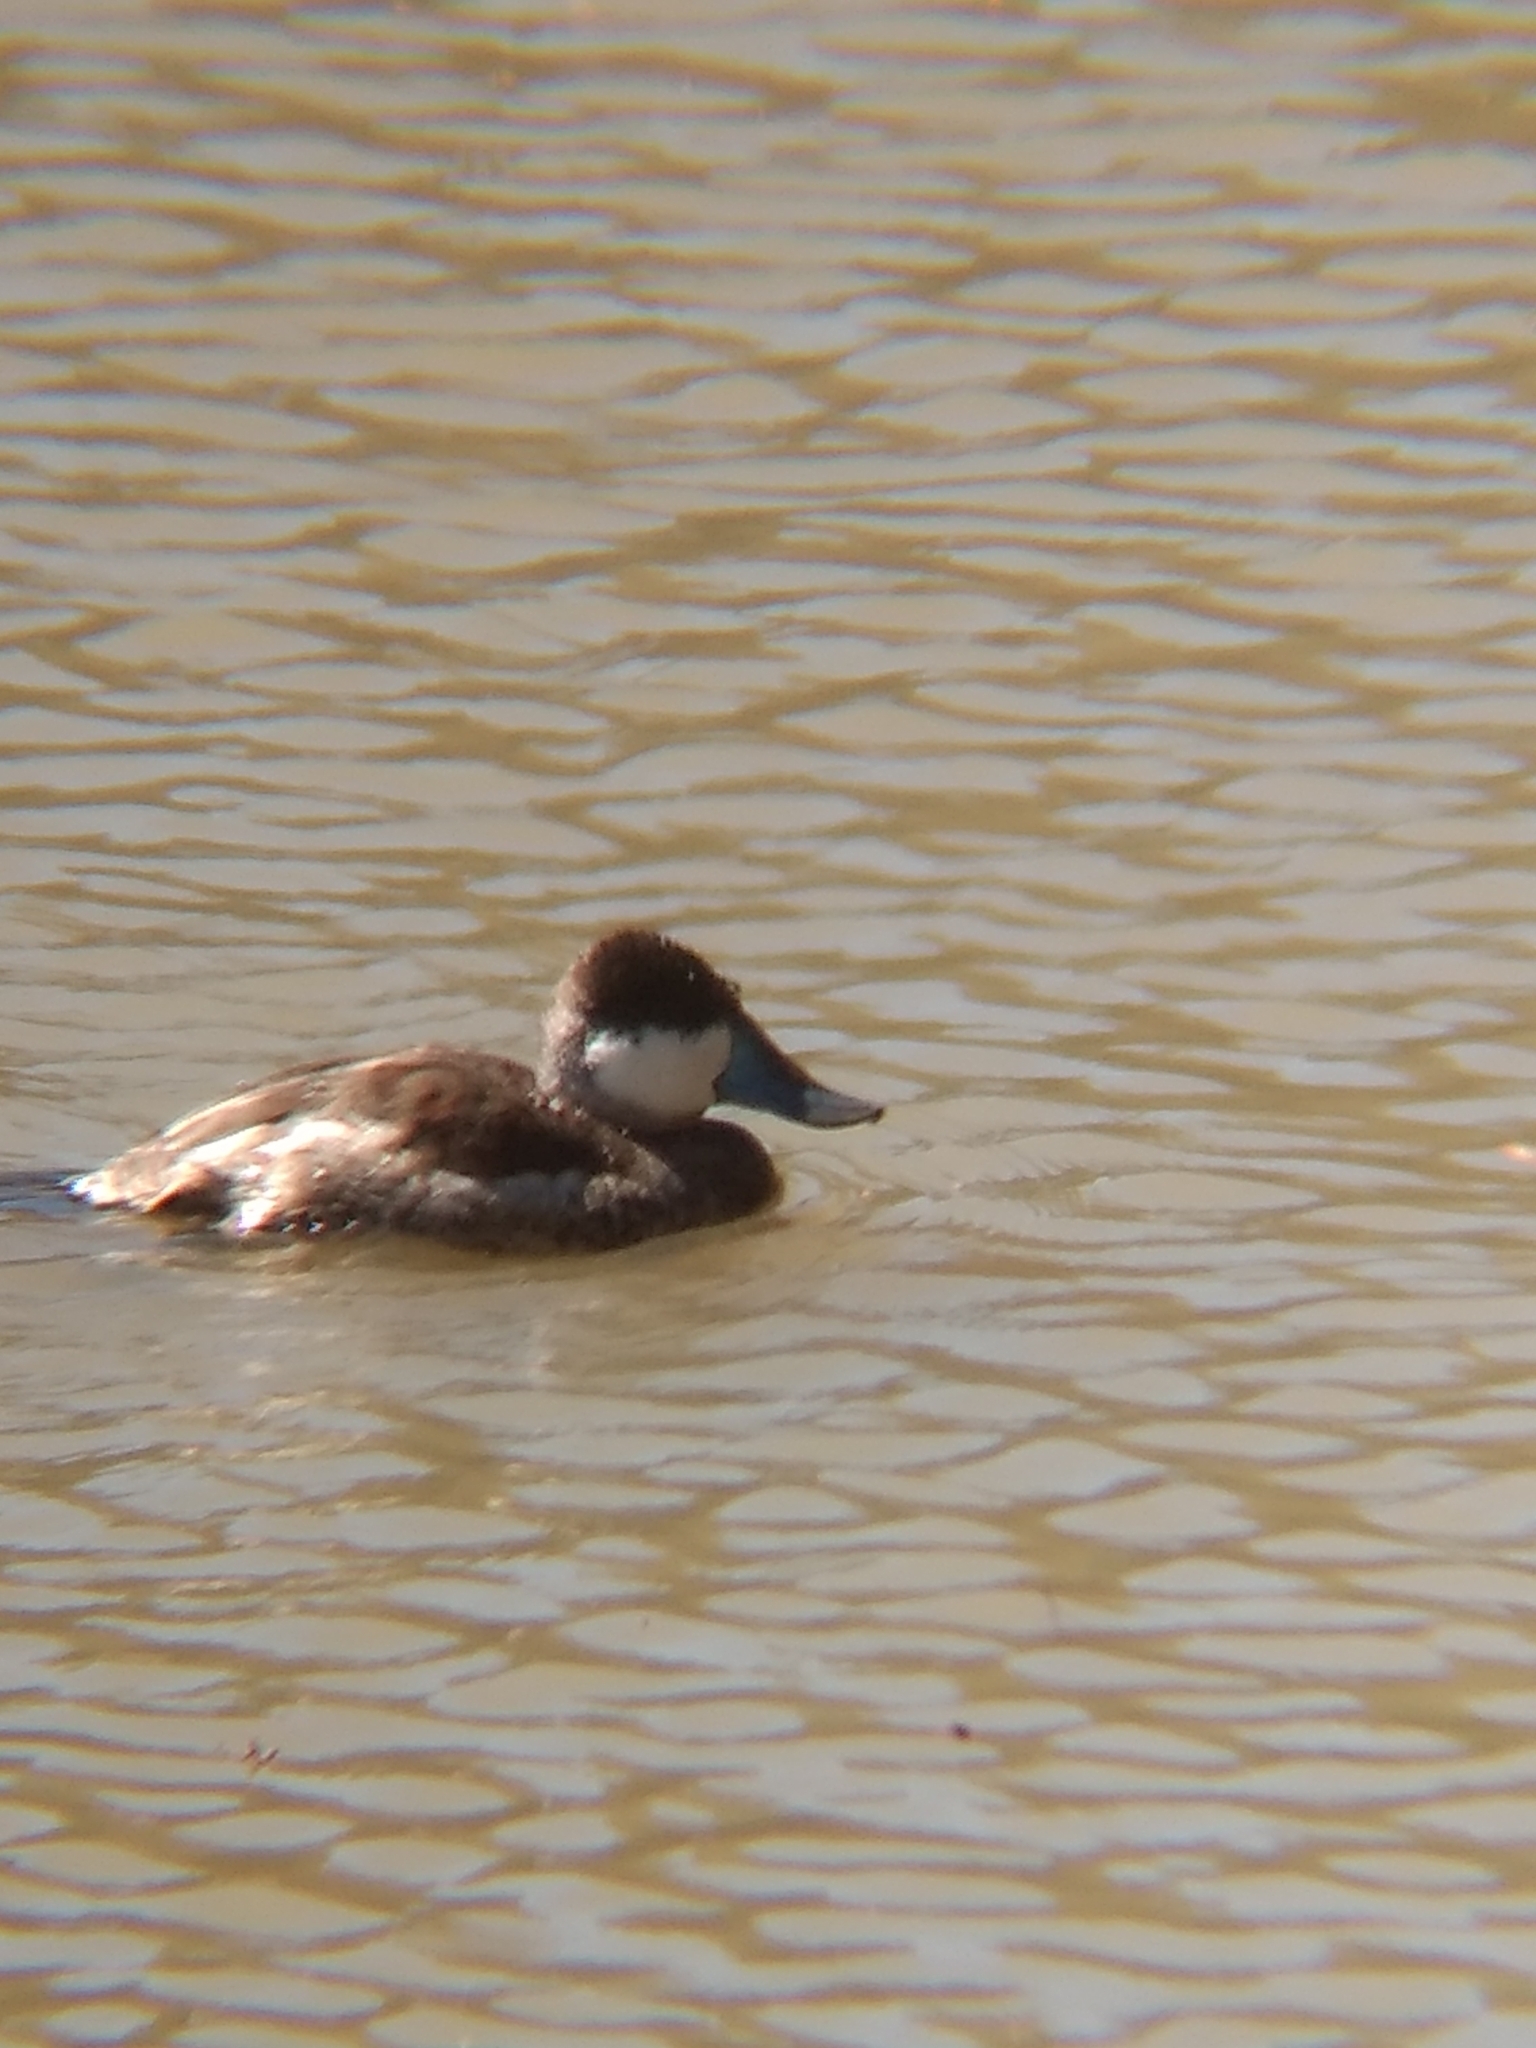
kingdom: Animalia
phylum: Chordata
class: Aves
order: Anseriformes
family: Anatidae
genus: Oxyura
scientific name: Oxyura jamaicensis
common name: Ruddy duck
